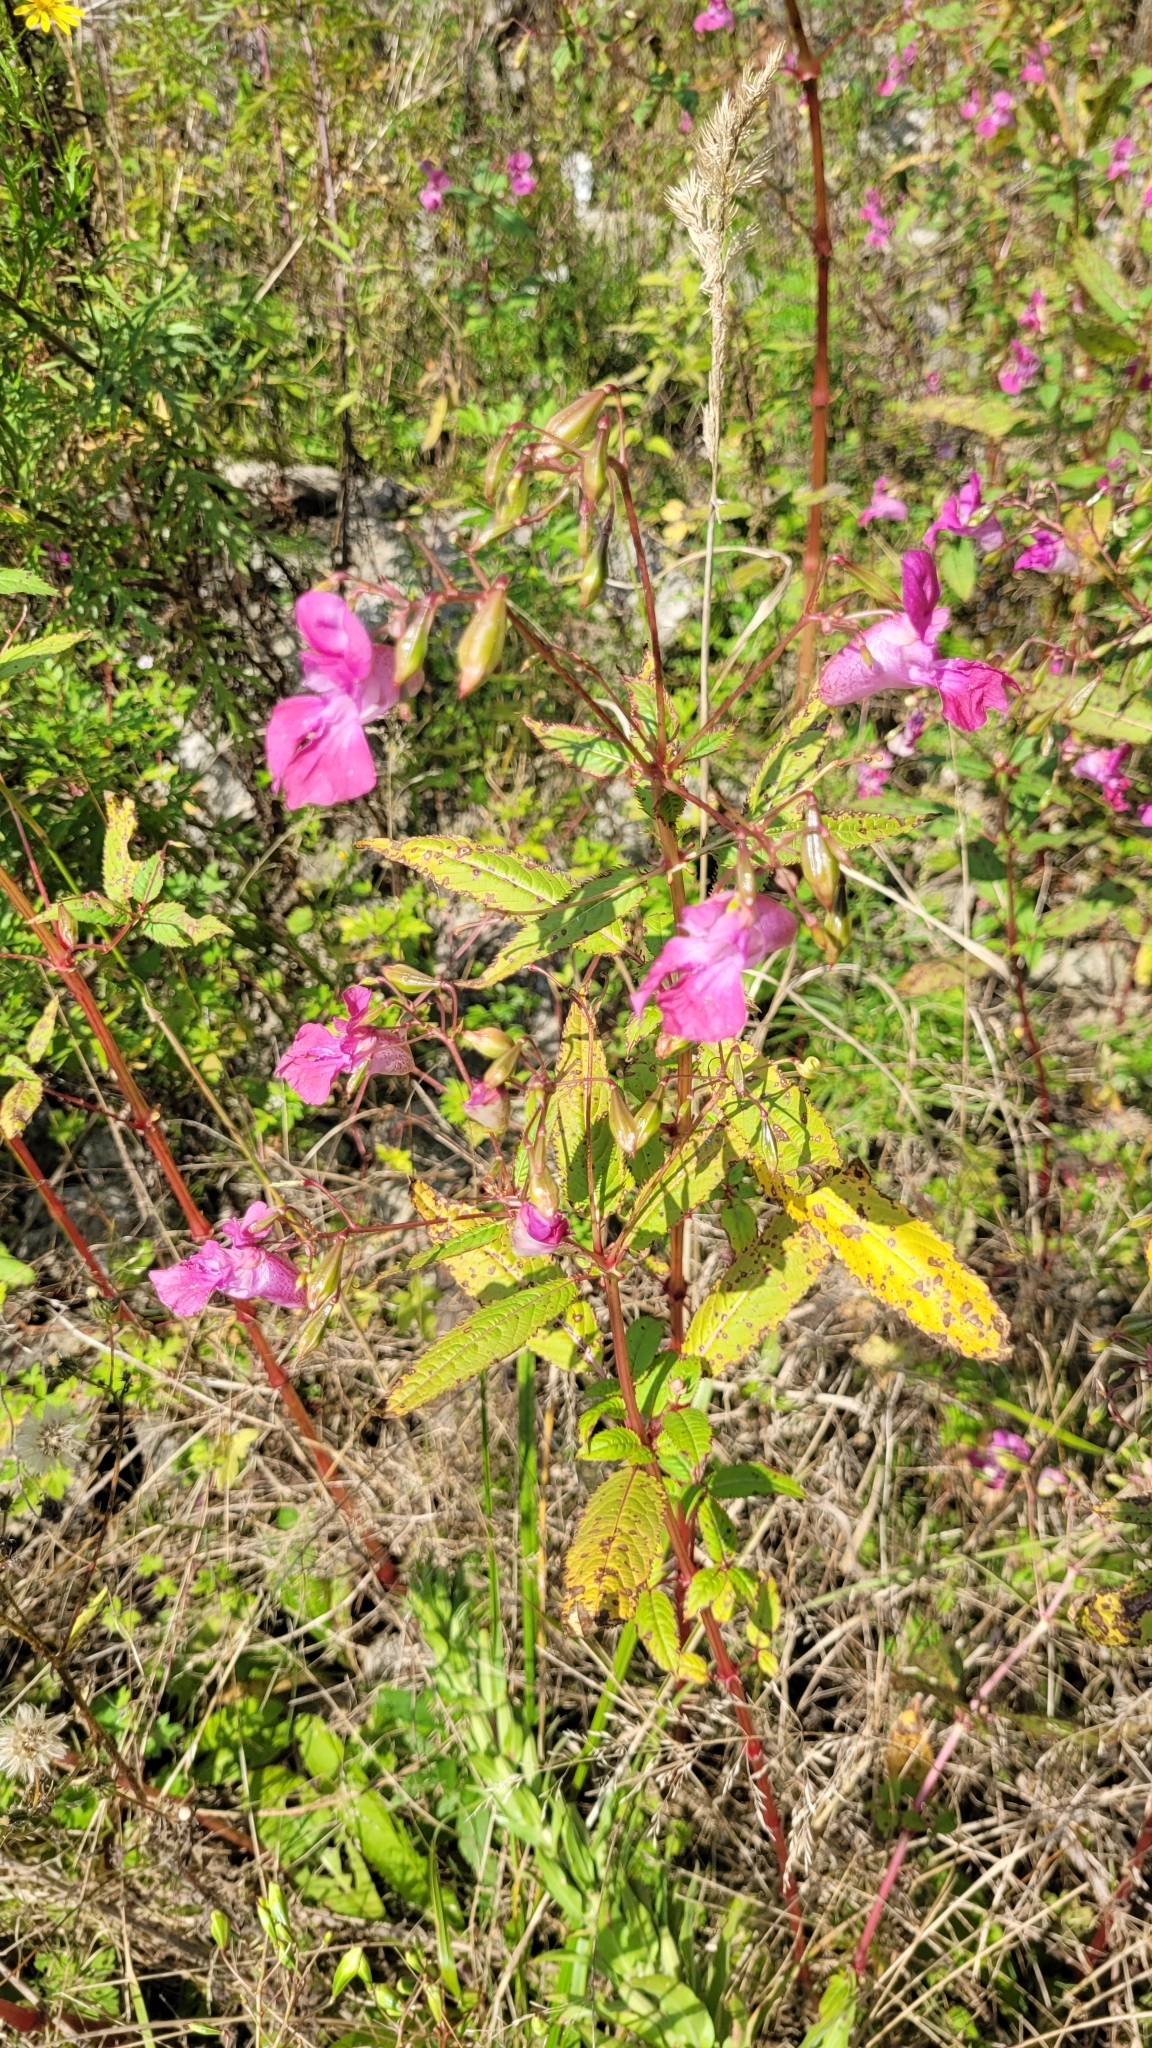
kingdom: Plantae
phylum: Tracheophyta
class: Magnoliopsida
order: Ericales
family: Balsaminaceae
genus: Impatiens
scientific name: Impatiens glandulifera
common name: Himalayan balsam
